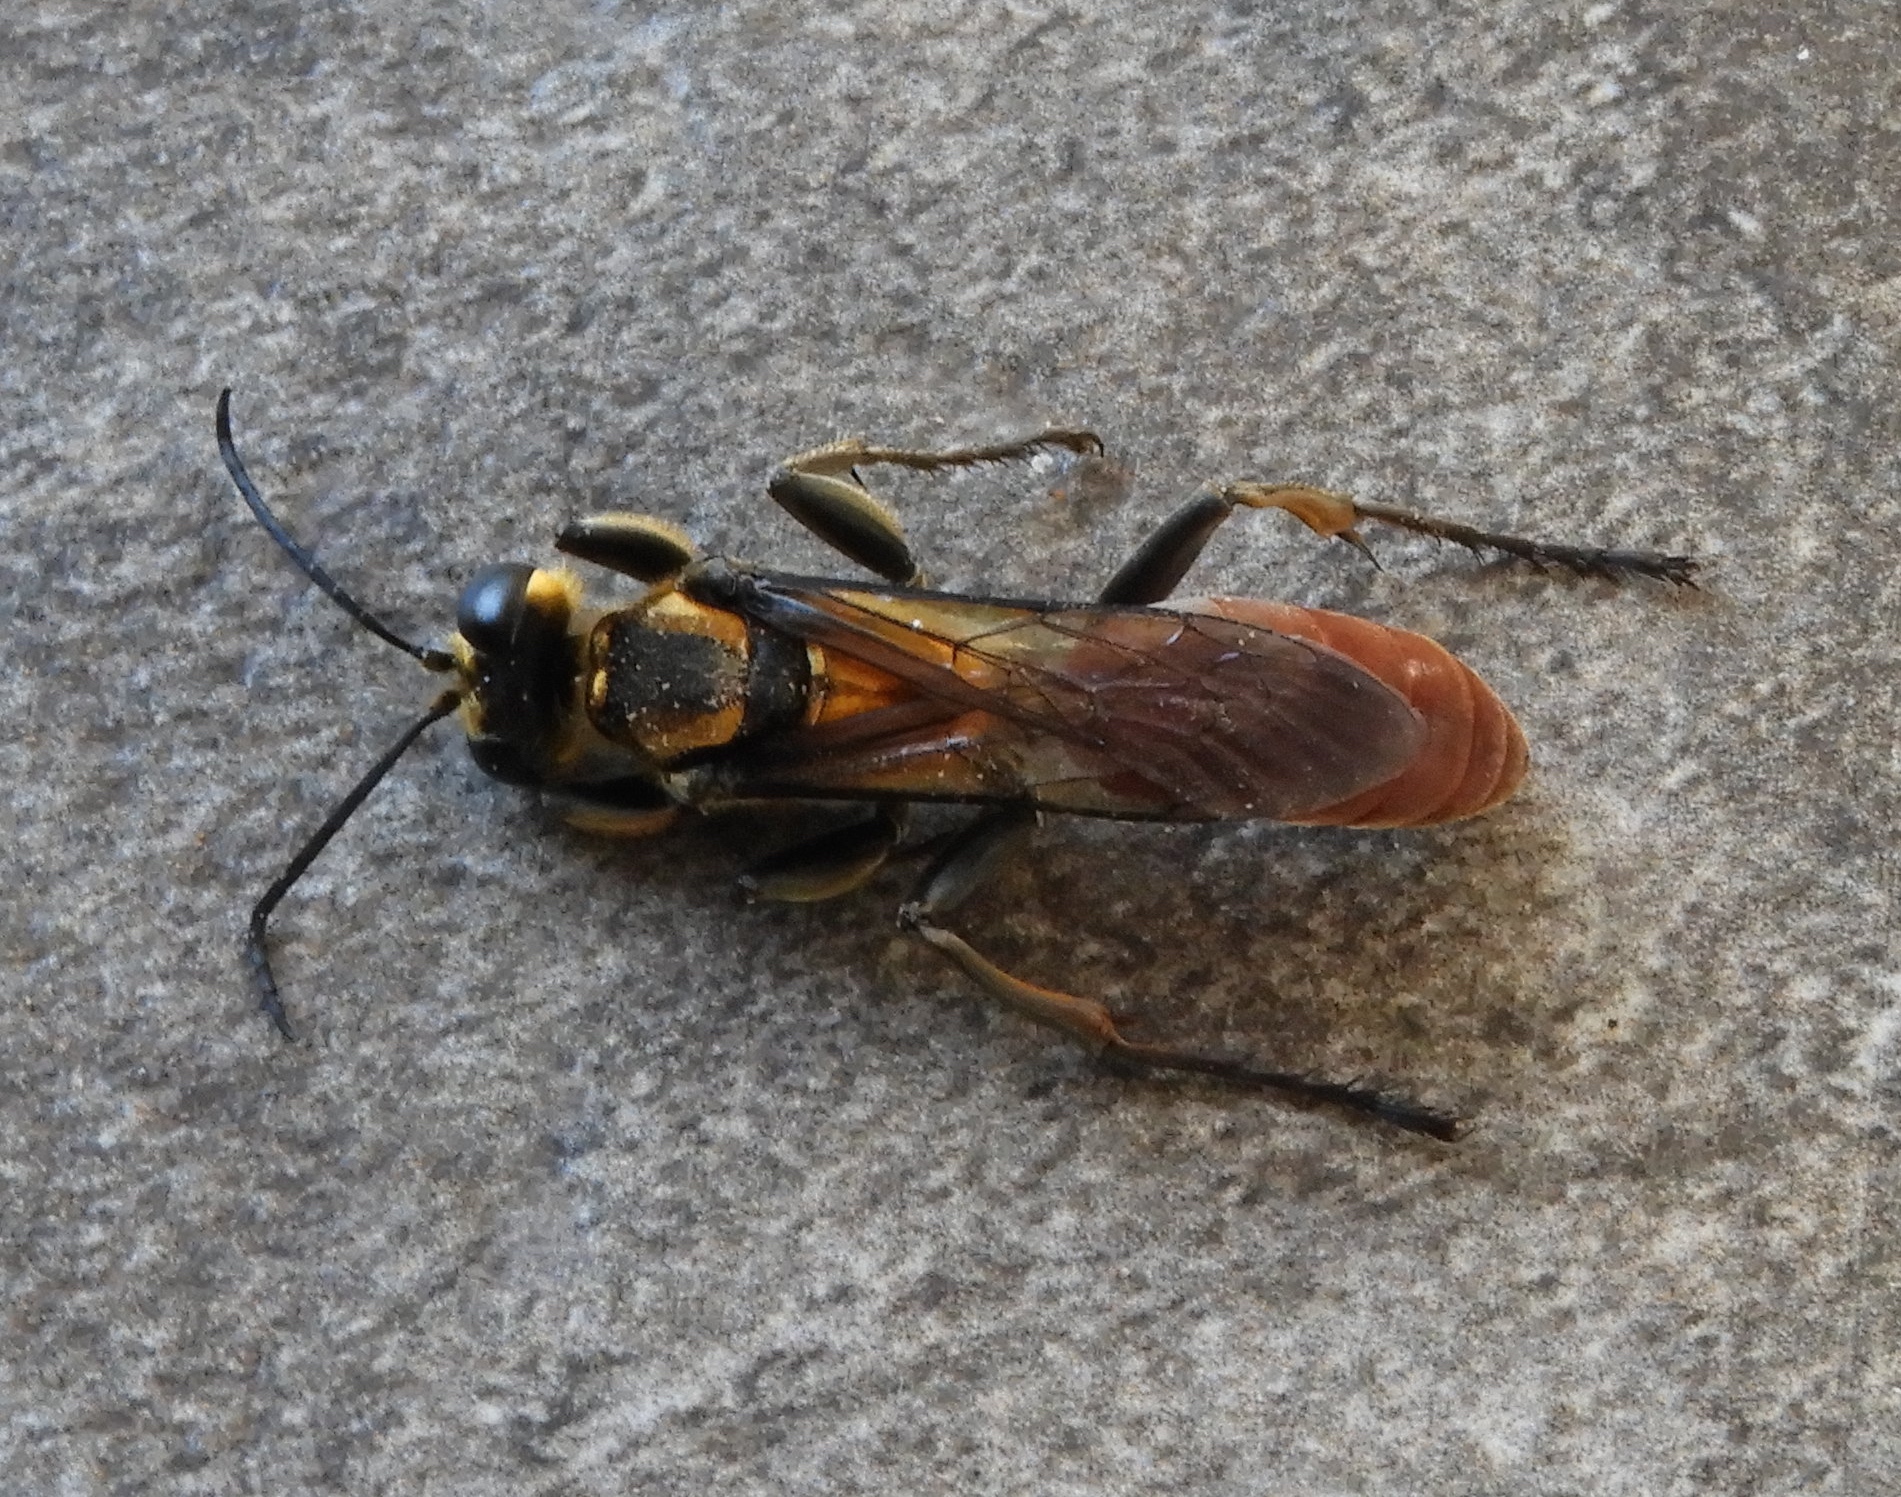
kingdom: Animalia
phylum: Arthropoda
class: Insecta
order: Hymenoptera
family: Sphecidae
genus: Sphex
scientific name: Sphex habenus
